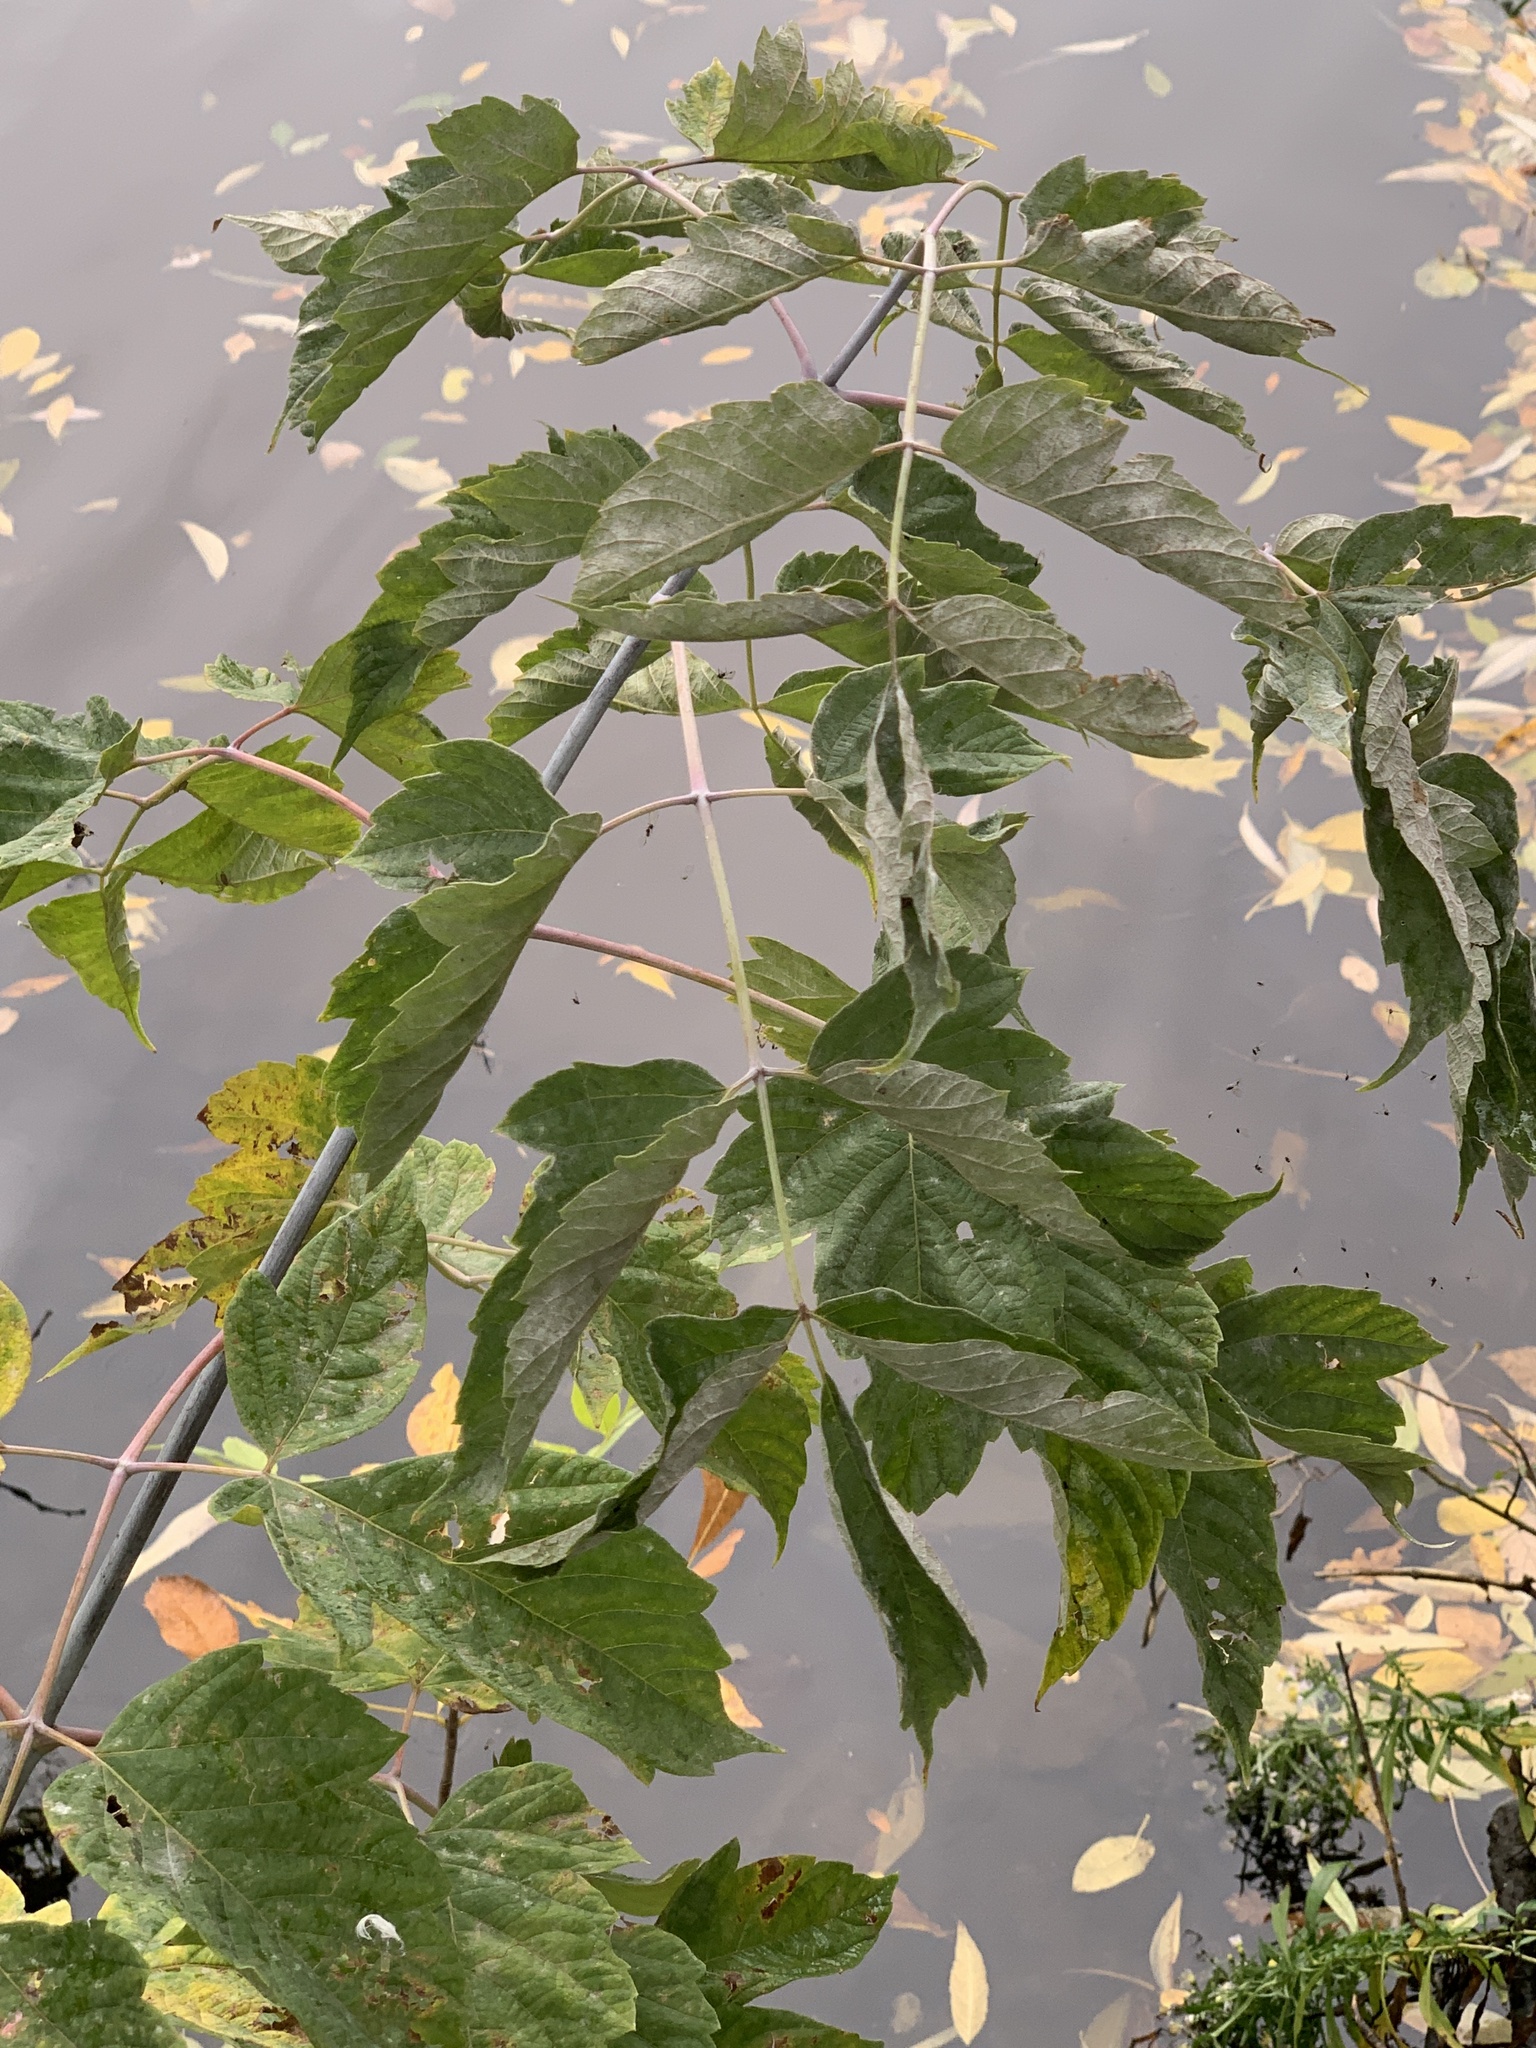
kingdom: Plantae
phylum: Tracheophyta
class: Magnoliopsida
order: Sapindales
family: Sapindaceae
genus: Acer
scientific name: Acer negundo
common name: Ashleaf maple
